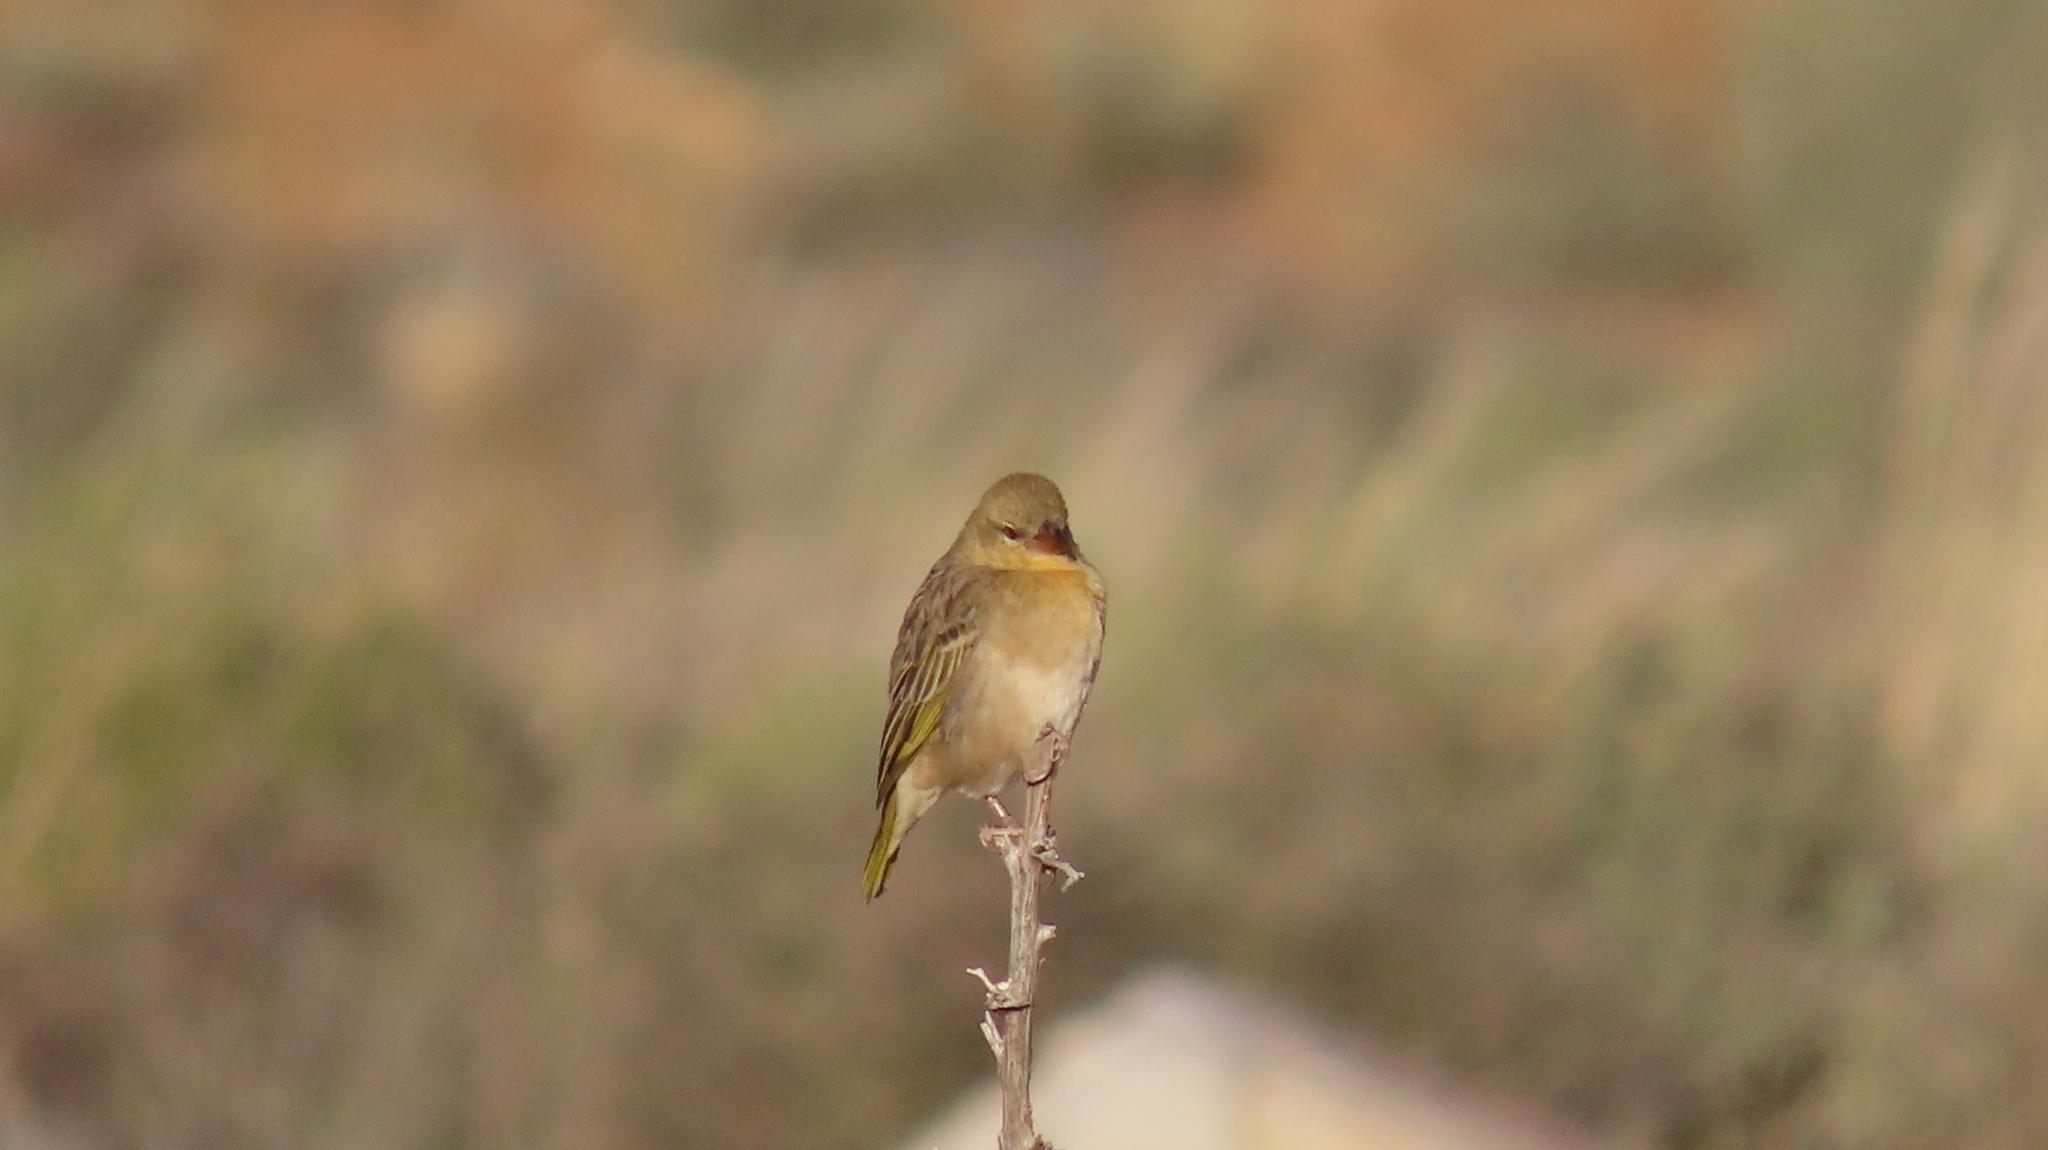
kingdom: Animalia
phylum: Chordata
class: Aves
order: Passeriformes
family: Ploceidae
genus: Ploceus
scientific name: Ploceus velatus
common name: Southern masked weaver
